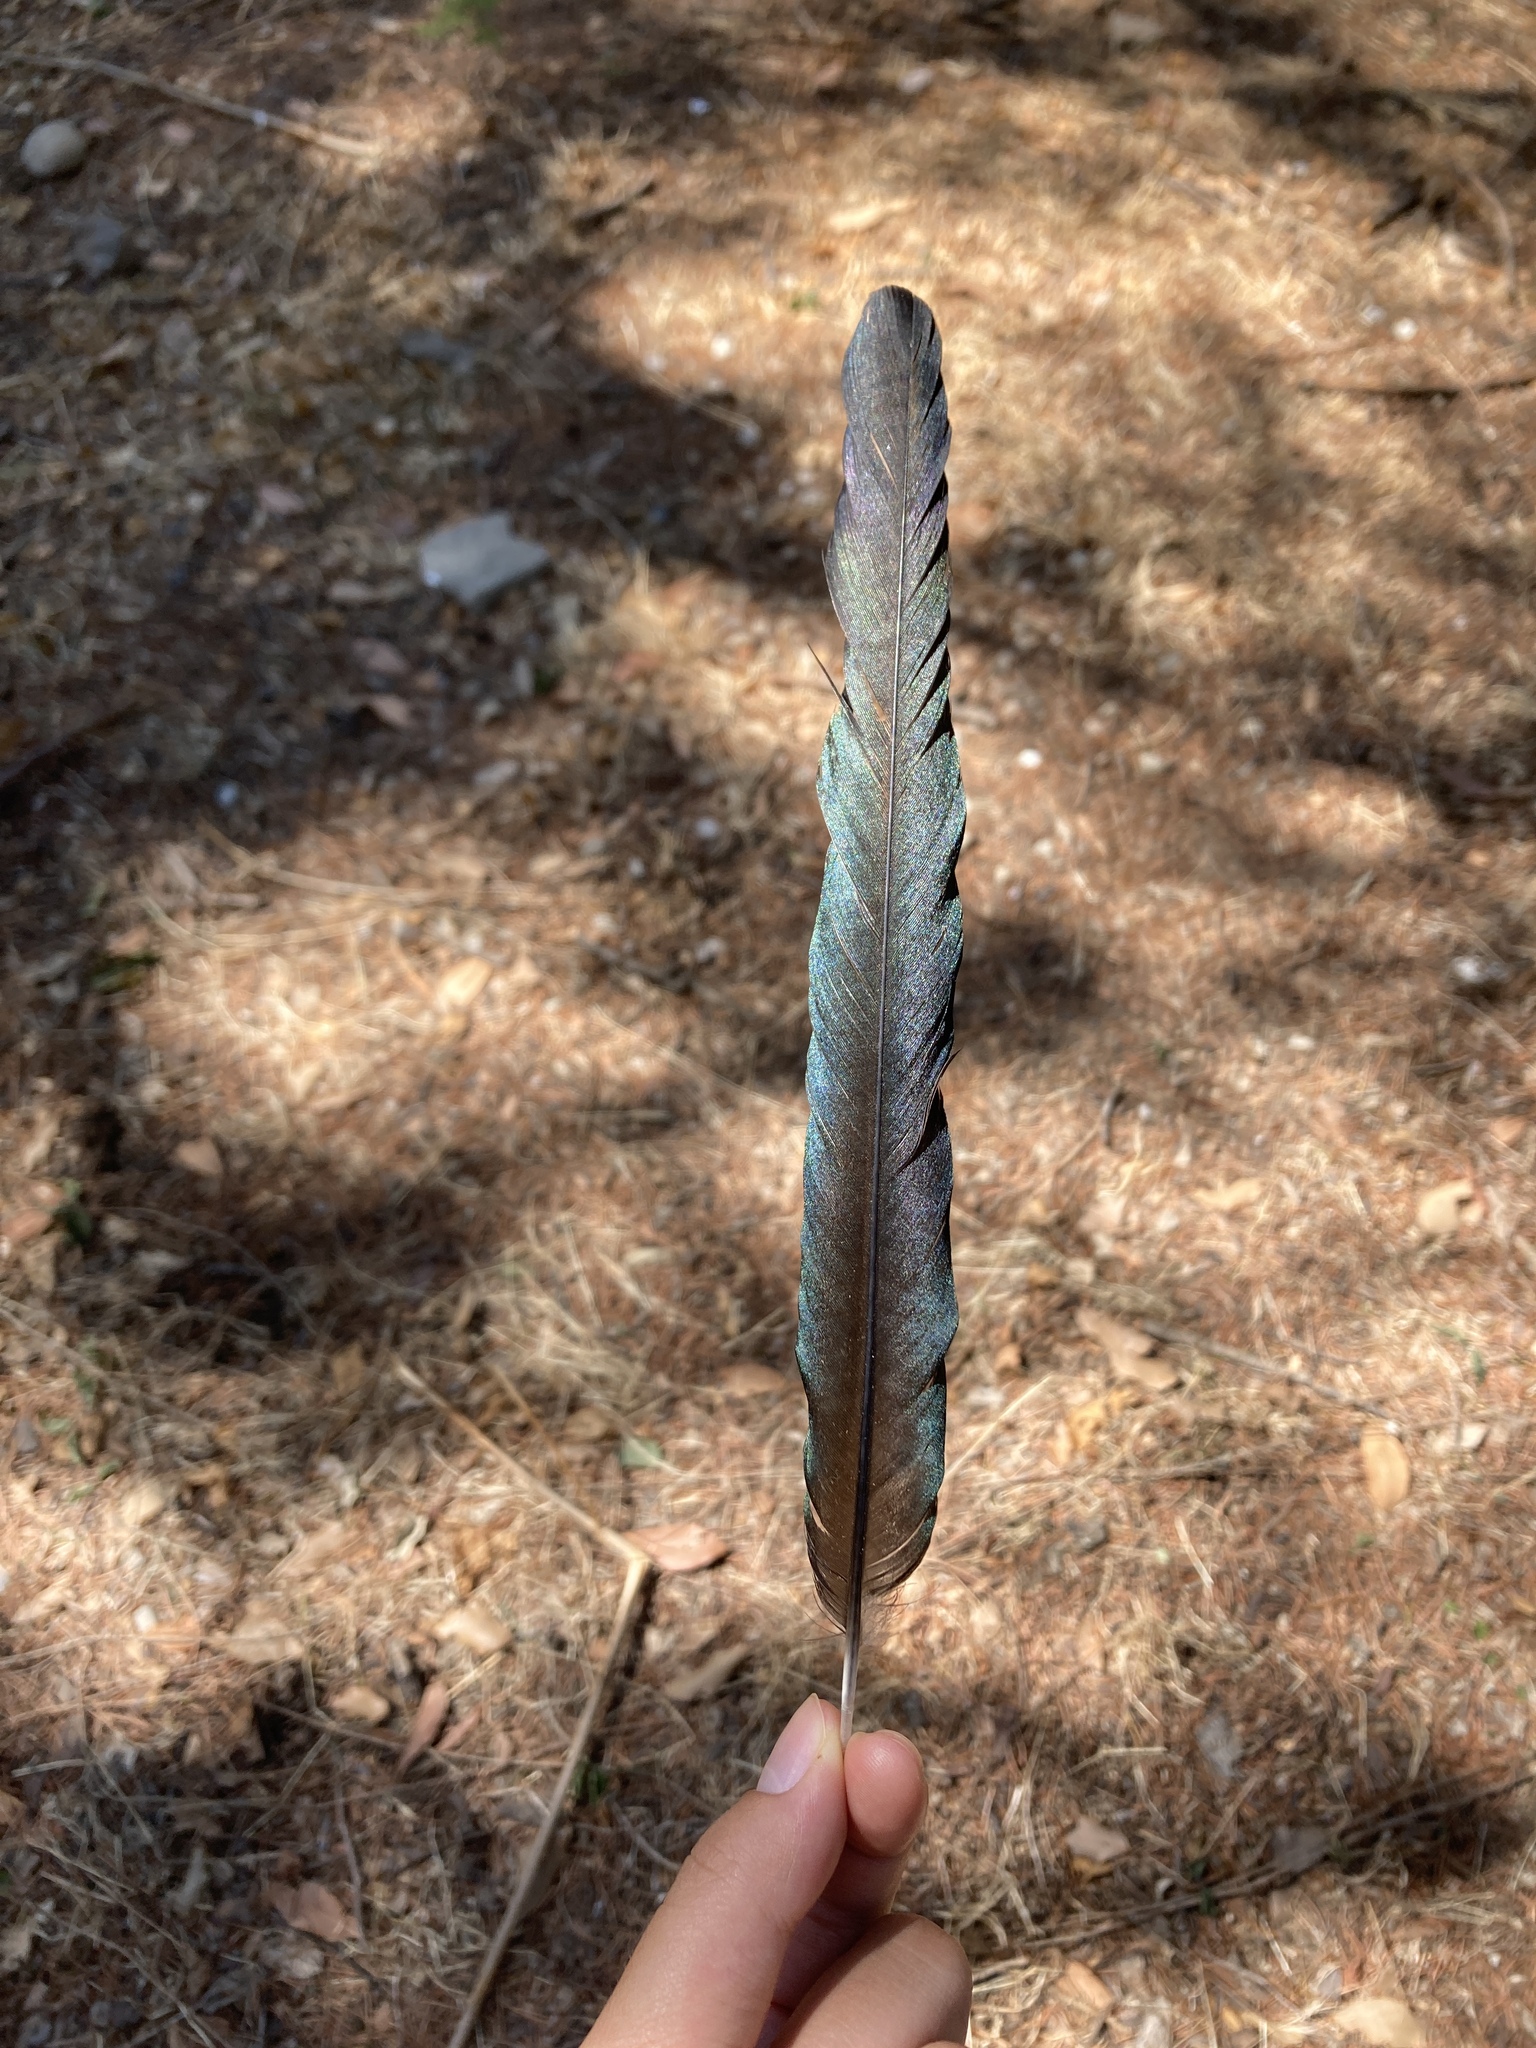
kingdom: Animalia
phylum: Chordata
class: Aves
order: Passeriformes
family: Corvidae
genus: Pica
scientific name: Pica pica
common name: Eurasian magpie
